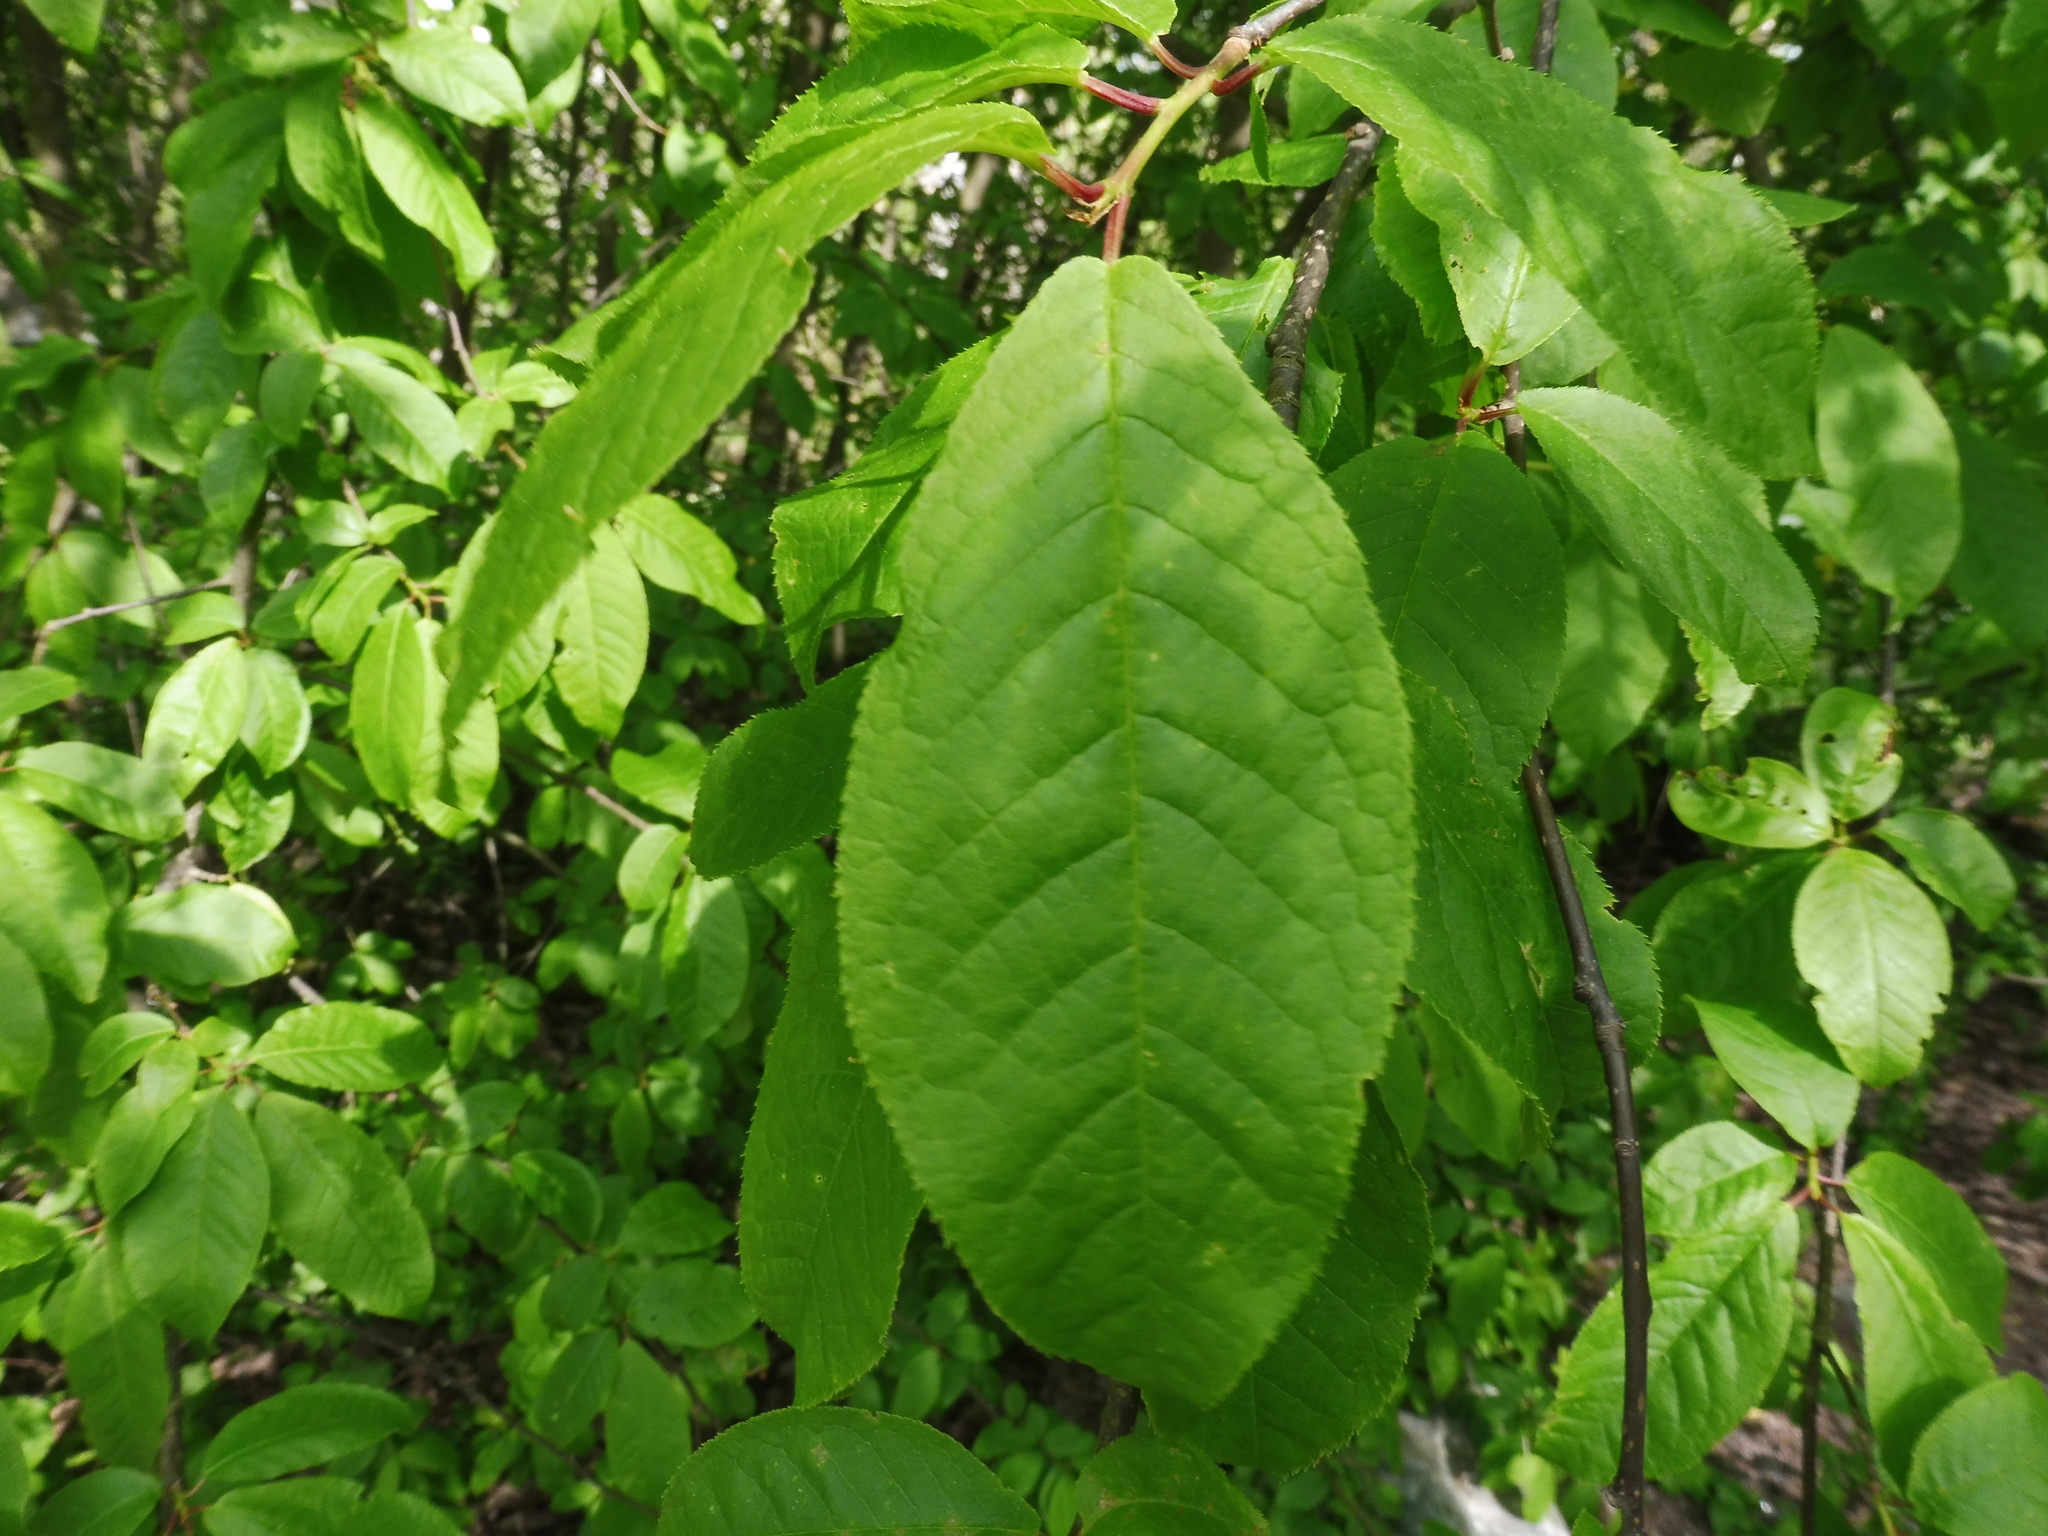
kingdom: Plantae
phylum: Tracheophyta
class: Magnoliopsida
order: Rosales
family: Rosaceae
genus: Prunus
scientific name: Prunus padus
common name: Bird cherry
